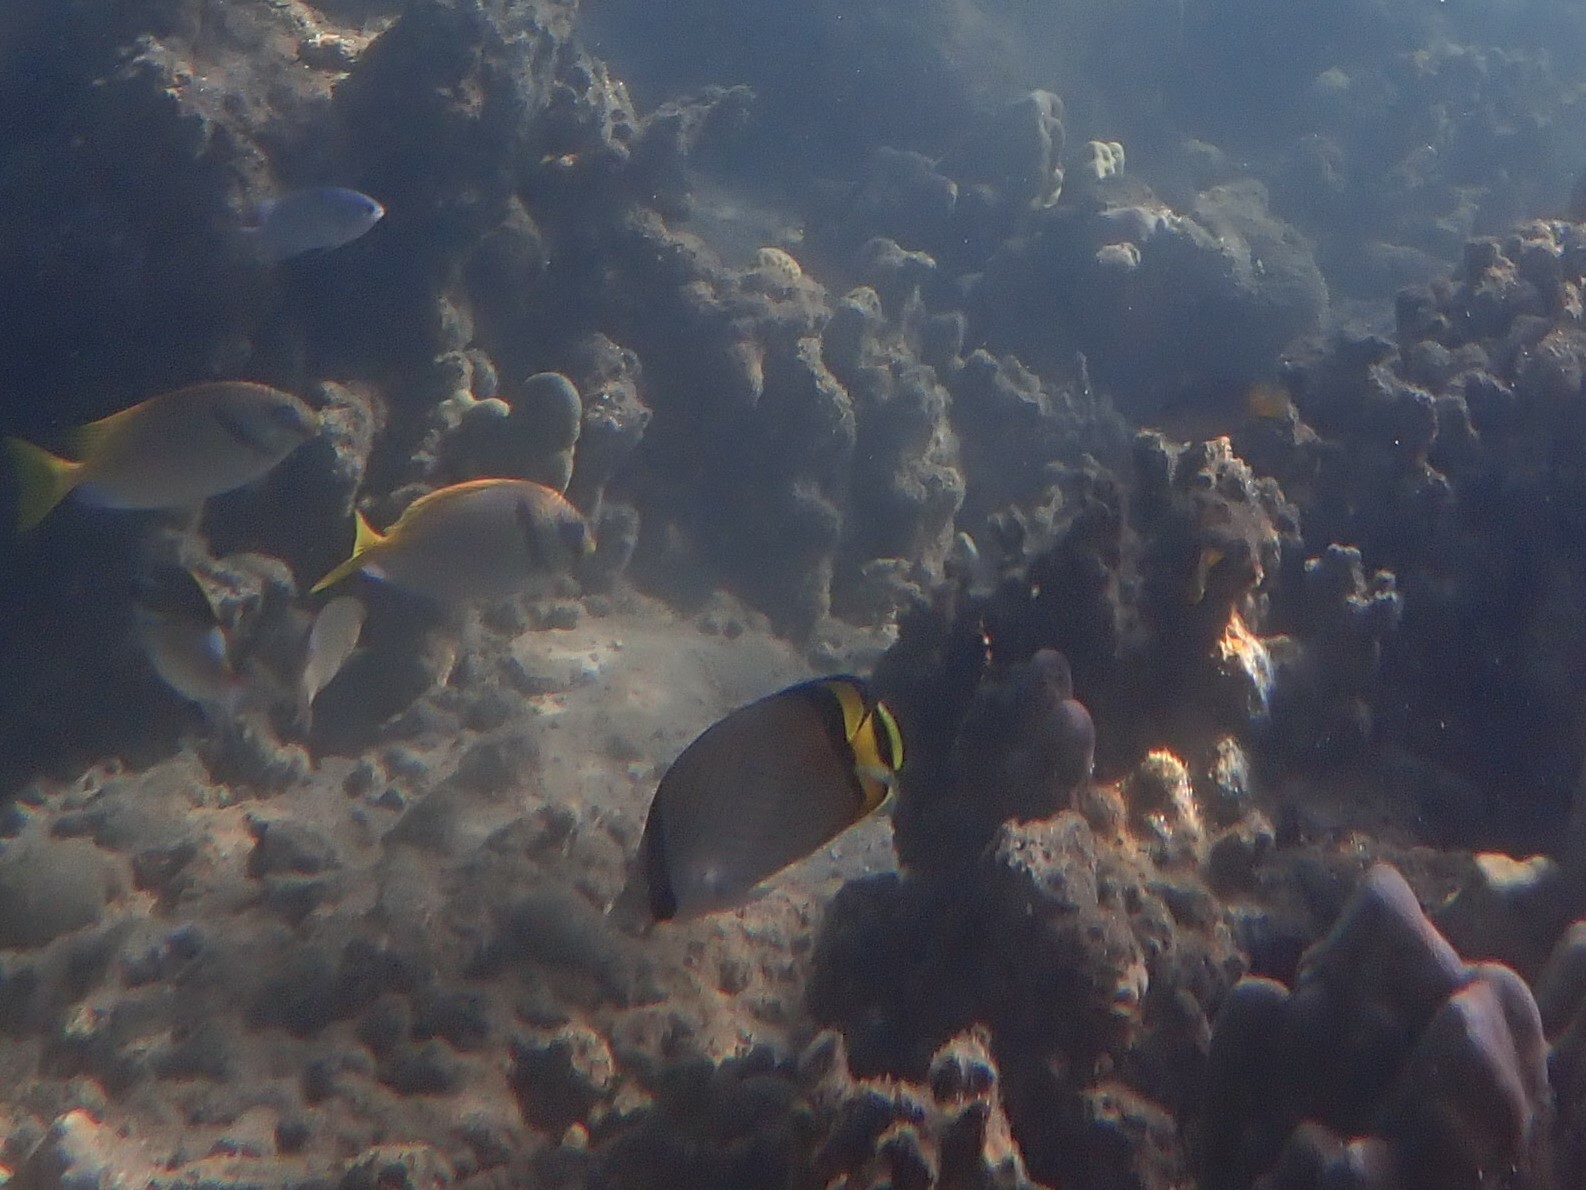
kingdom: Animalia
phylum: Chordata
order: Perciformes
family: Chaetodontidae
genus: Chaetodon
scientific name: Chaetodon vagabundus
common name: Vagabond butterflyfish
